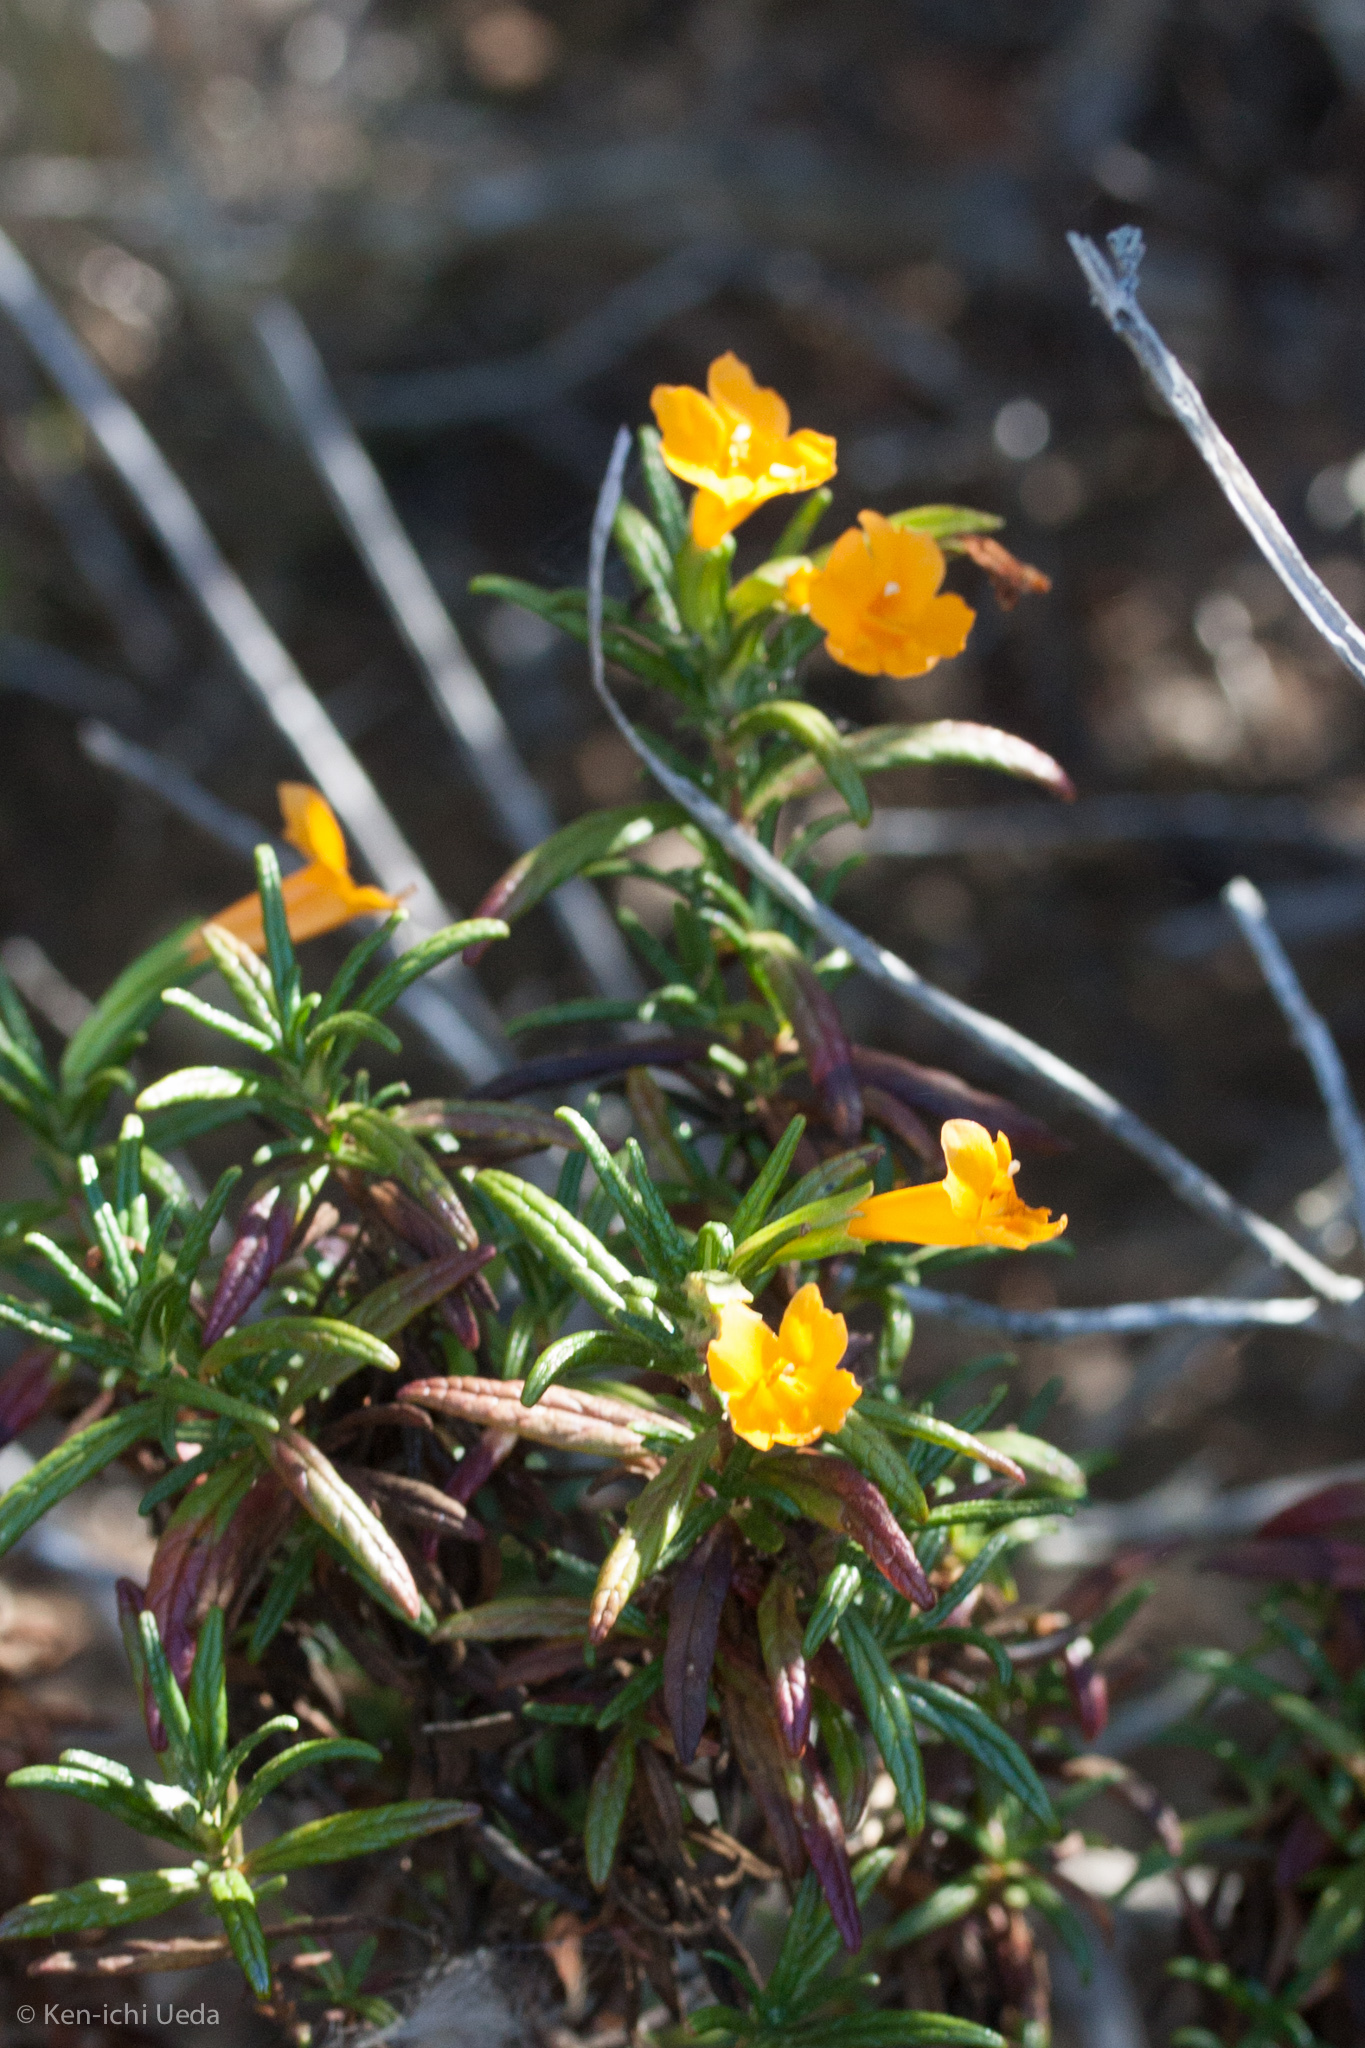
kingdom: Plantae
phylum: Tracheophyta
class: Magnoliopsida
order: Lamiales
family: Phrymaceae
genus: Diplacus
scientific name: Diplacus aurantiacus
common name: Bush monkey-flower
